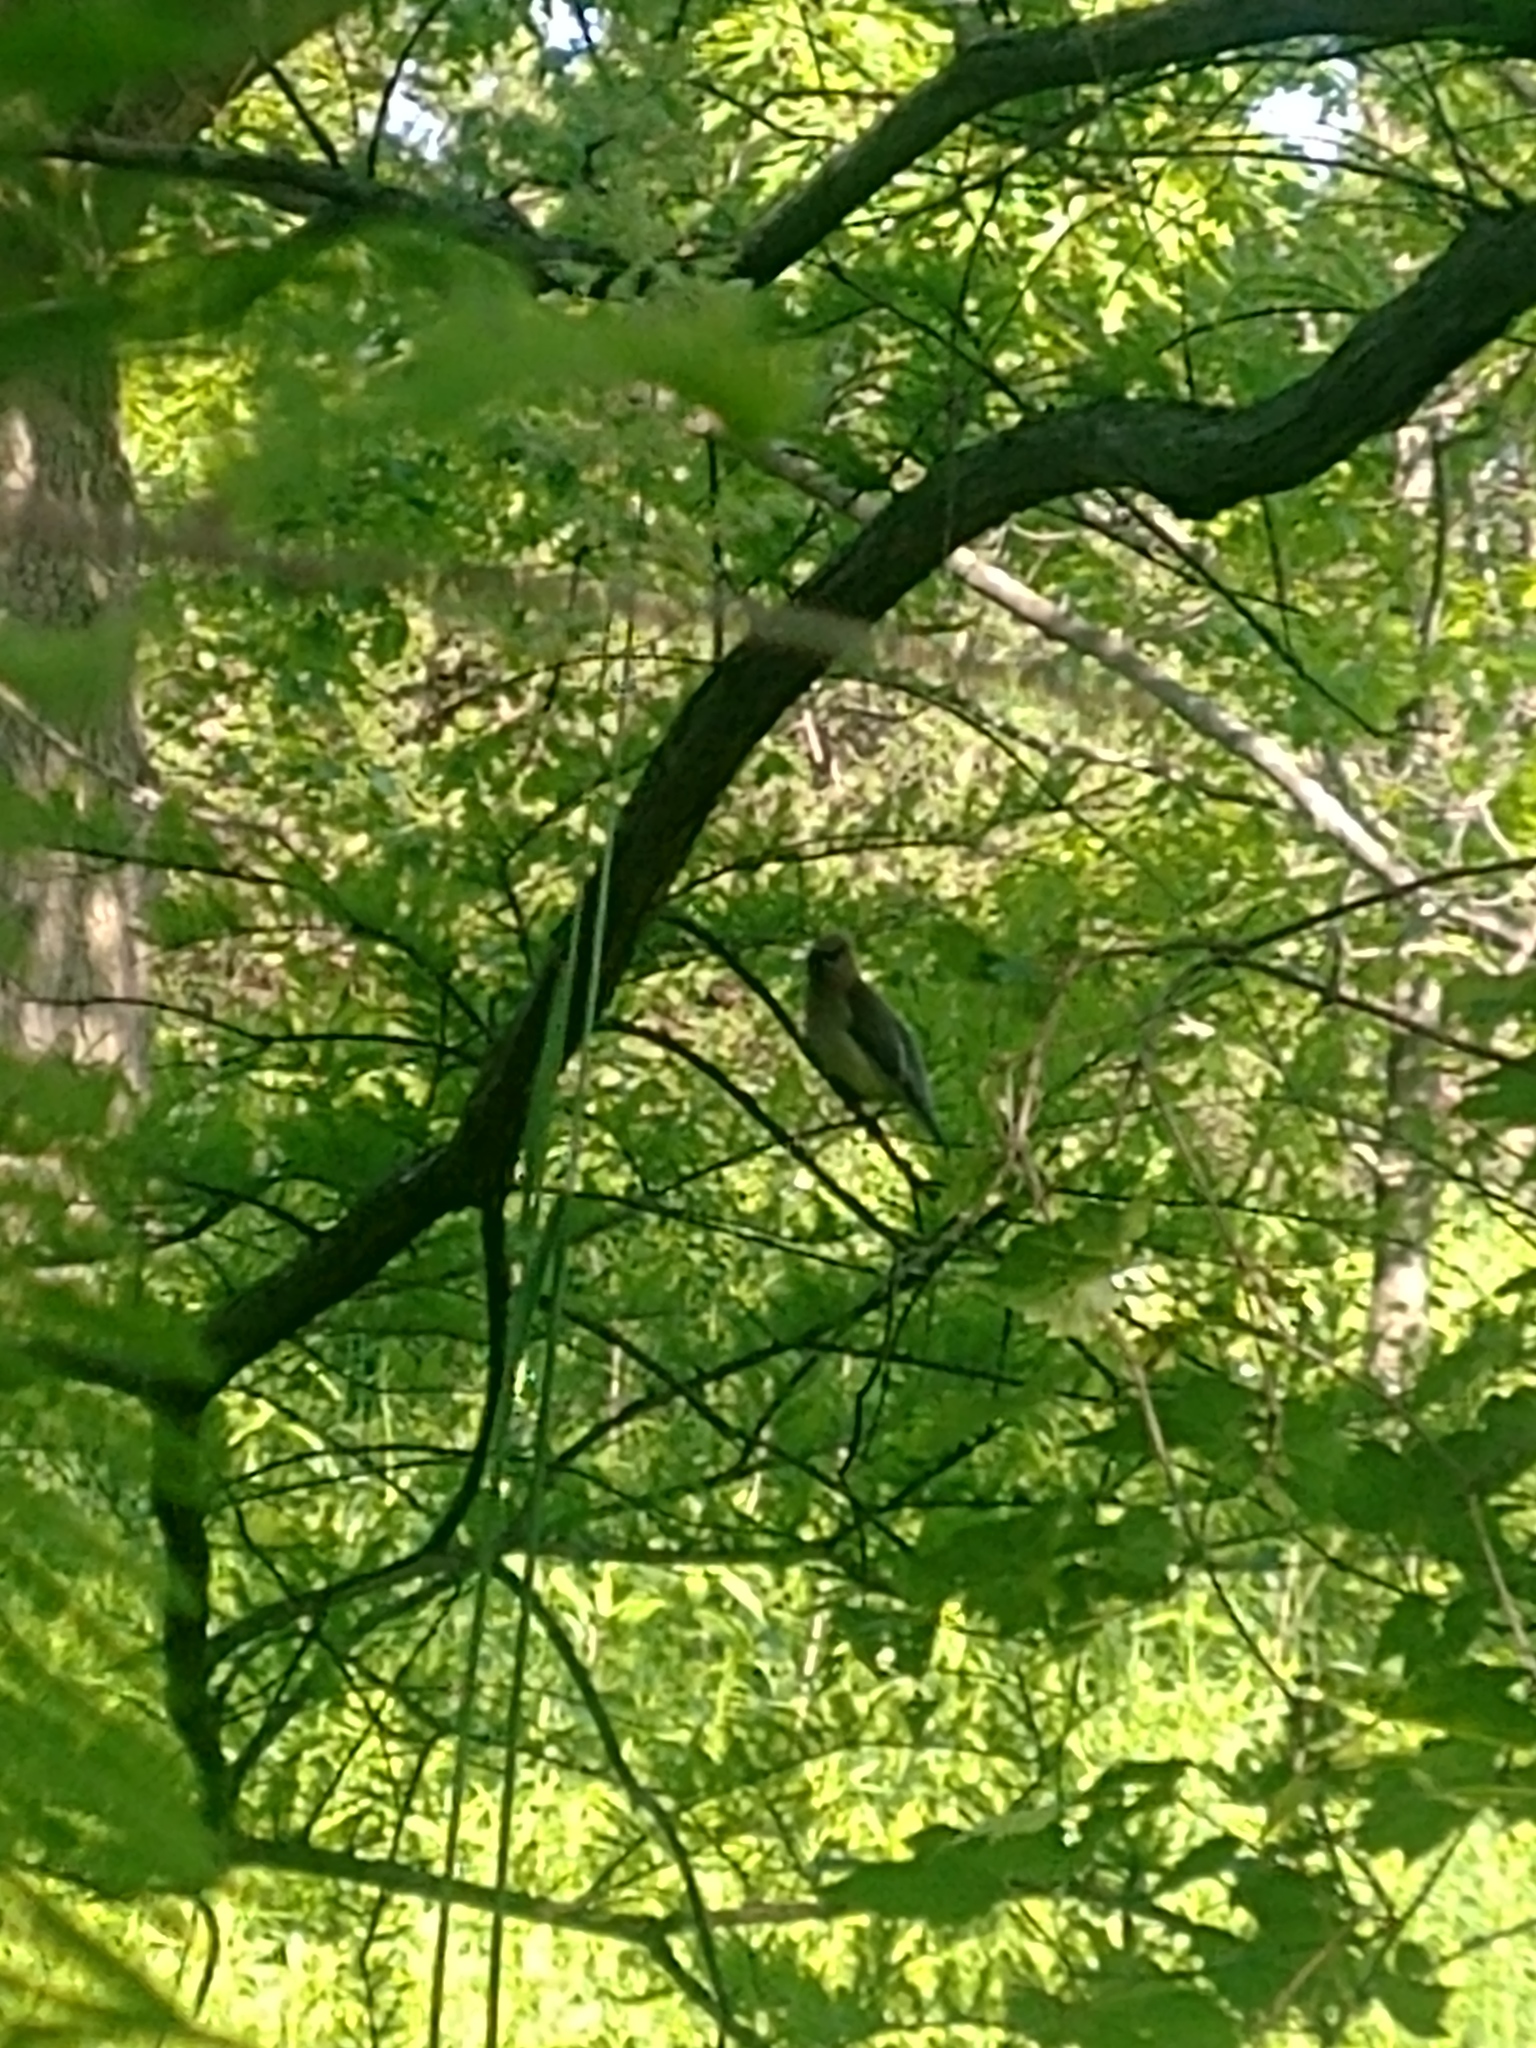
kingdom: Animalia
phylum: Chordata
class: Aves
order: Passeriformes
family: Bombycillidae
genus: Bombycilla
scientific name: Bombycilla cedrorum
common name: Cedar waxwing
